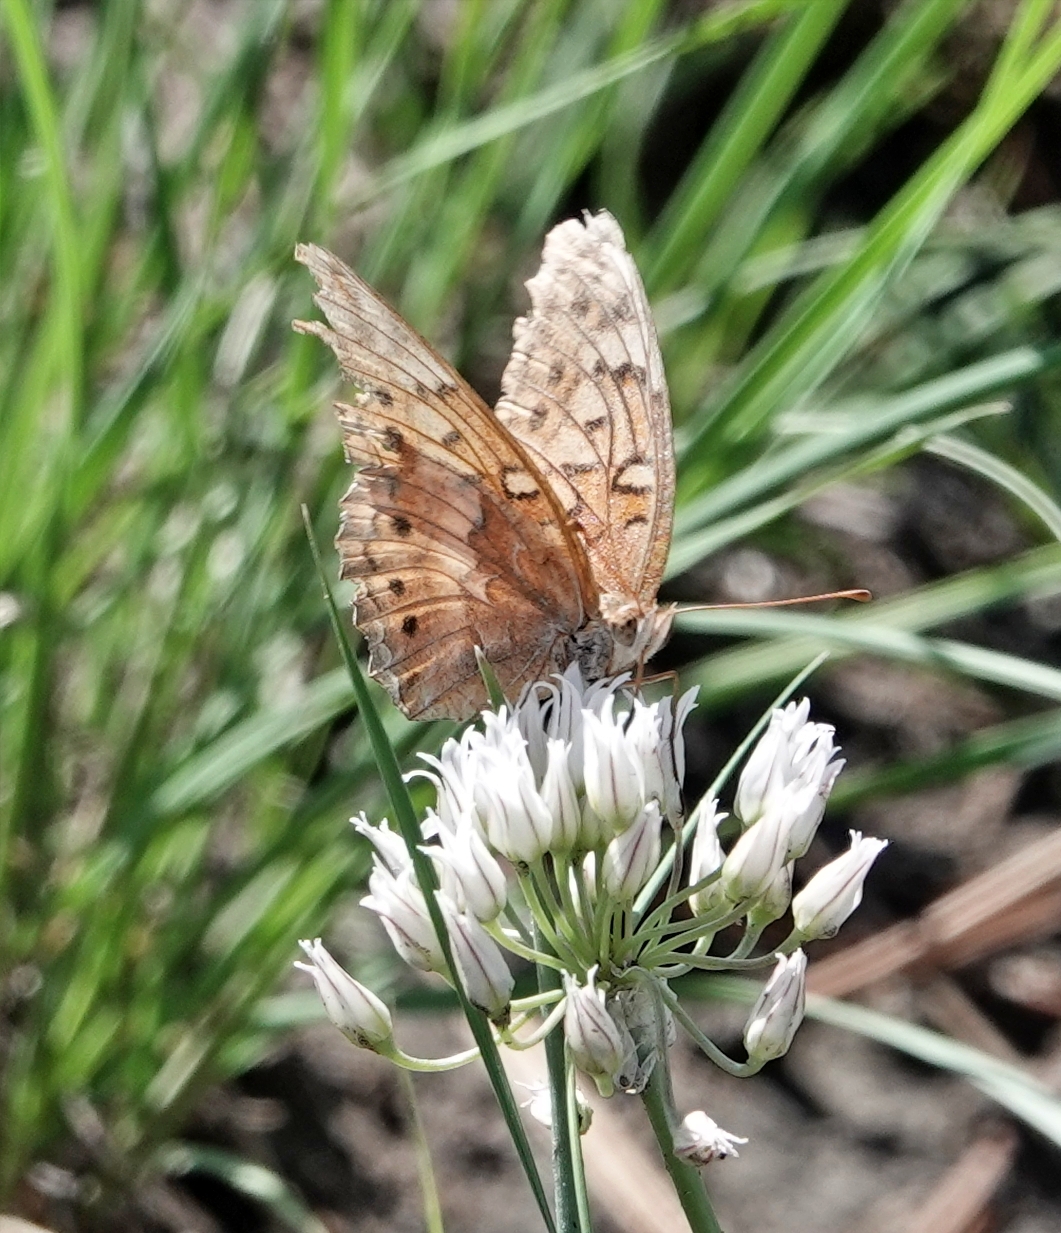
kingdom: Animalia
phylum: Arthropoda
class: Insecta
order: Lepidoptera
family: Nymphalidae
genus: Euptoieta
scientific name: Euptoieta claudia
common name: Variegated fritillary
